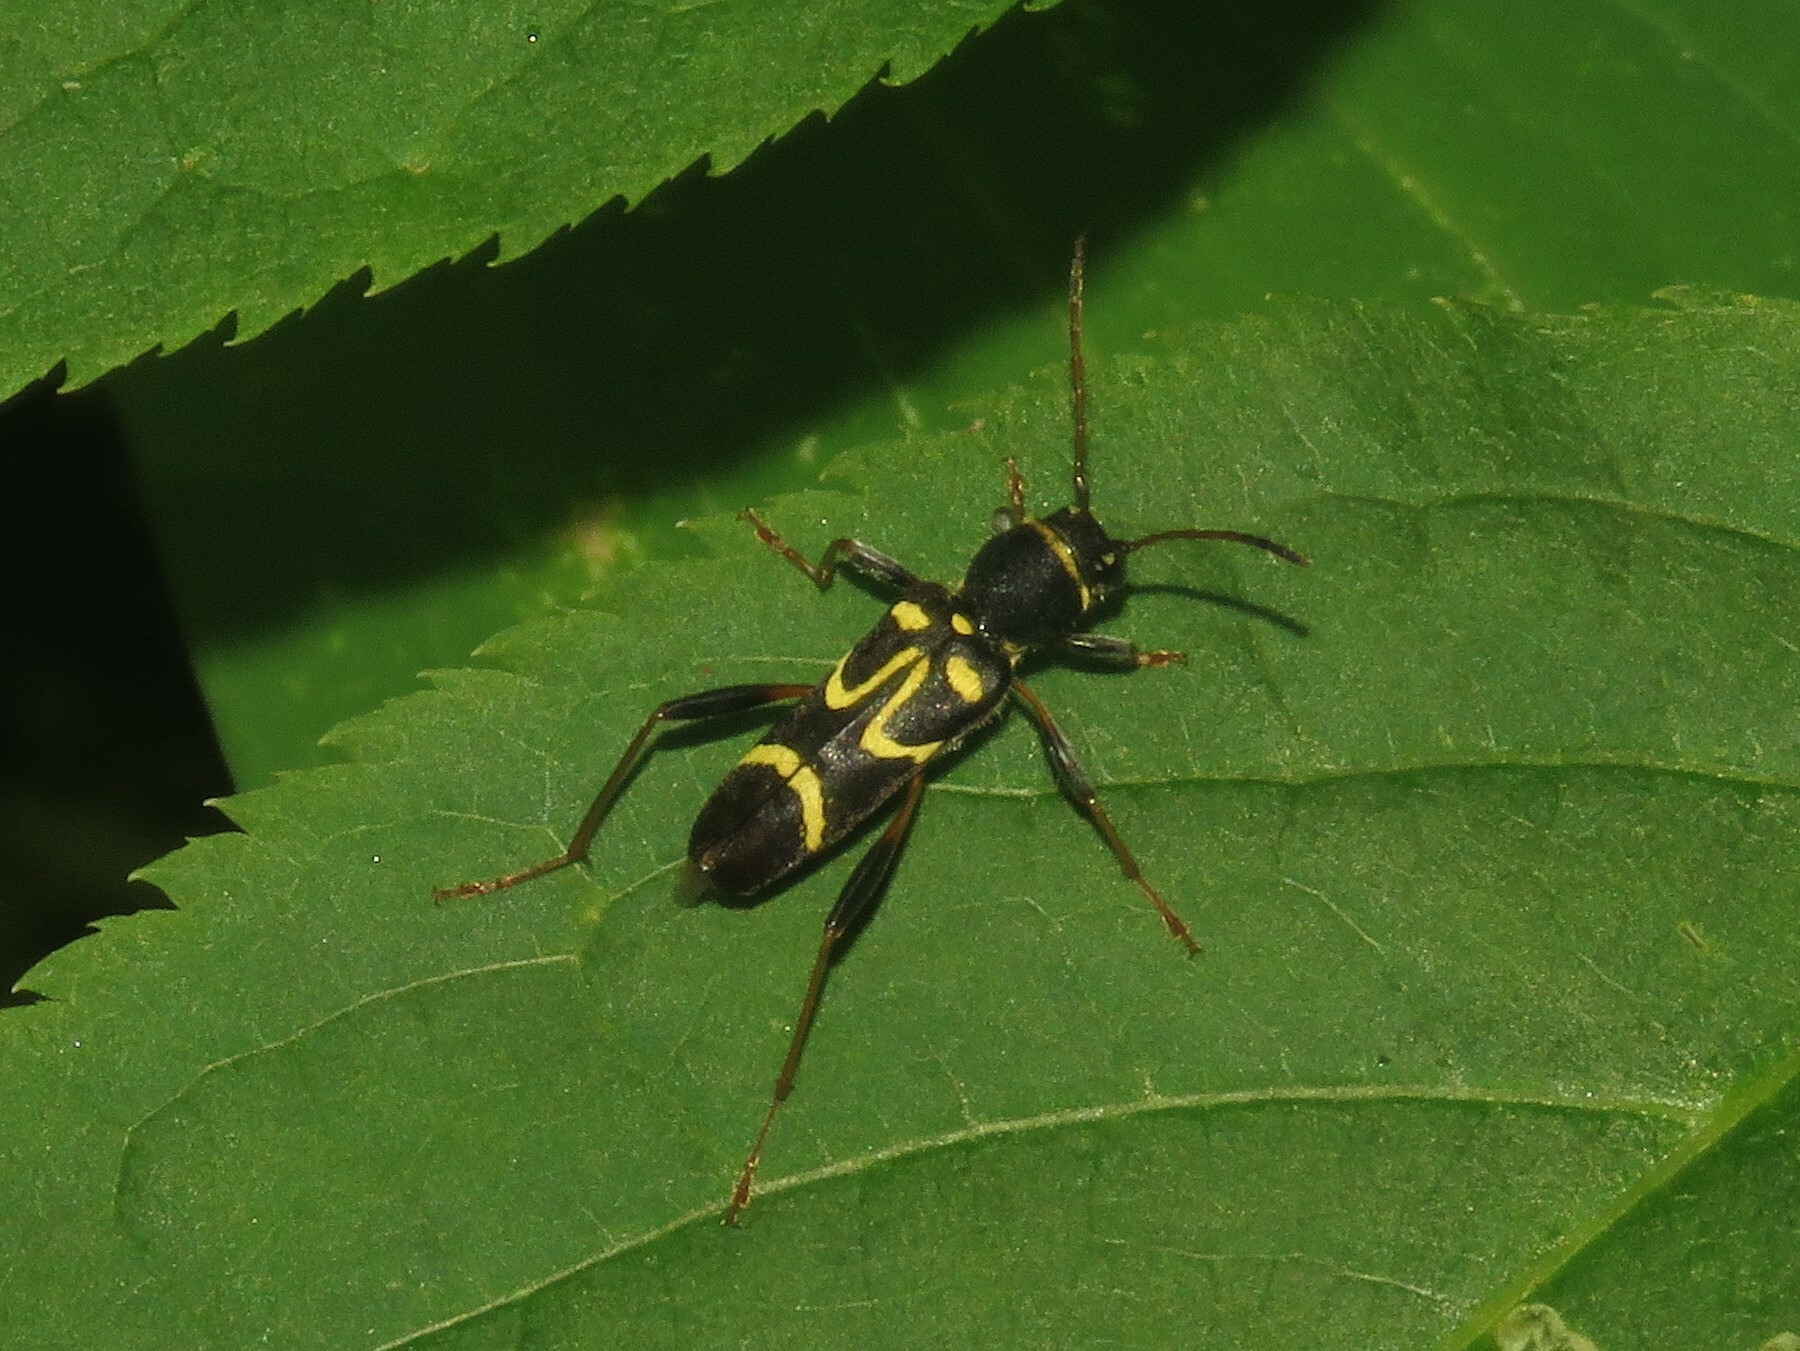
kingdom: Animalia
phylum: Arthropoda
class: Insecta
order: Coleoptera
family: Cerambycidae
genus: Clytus
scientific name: Clytus ruricola
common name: Round-necked longhorn beetle
